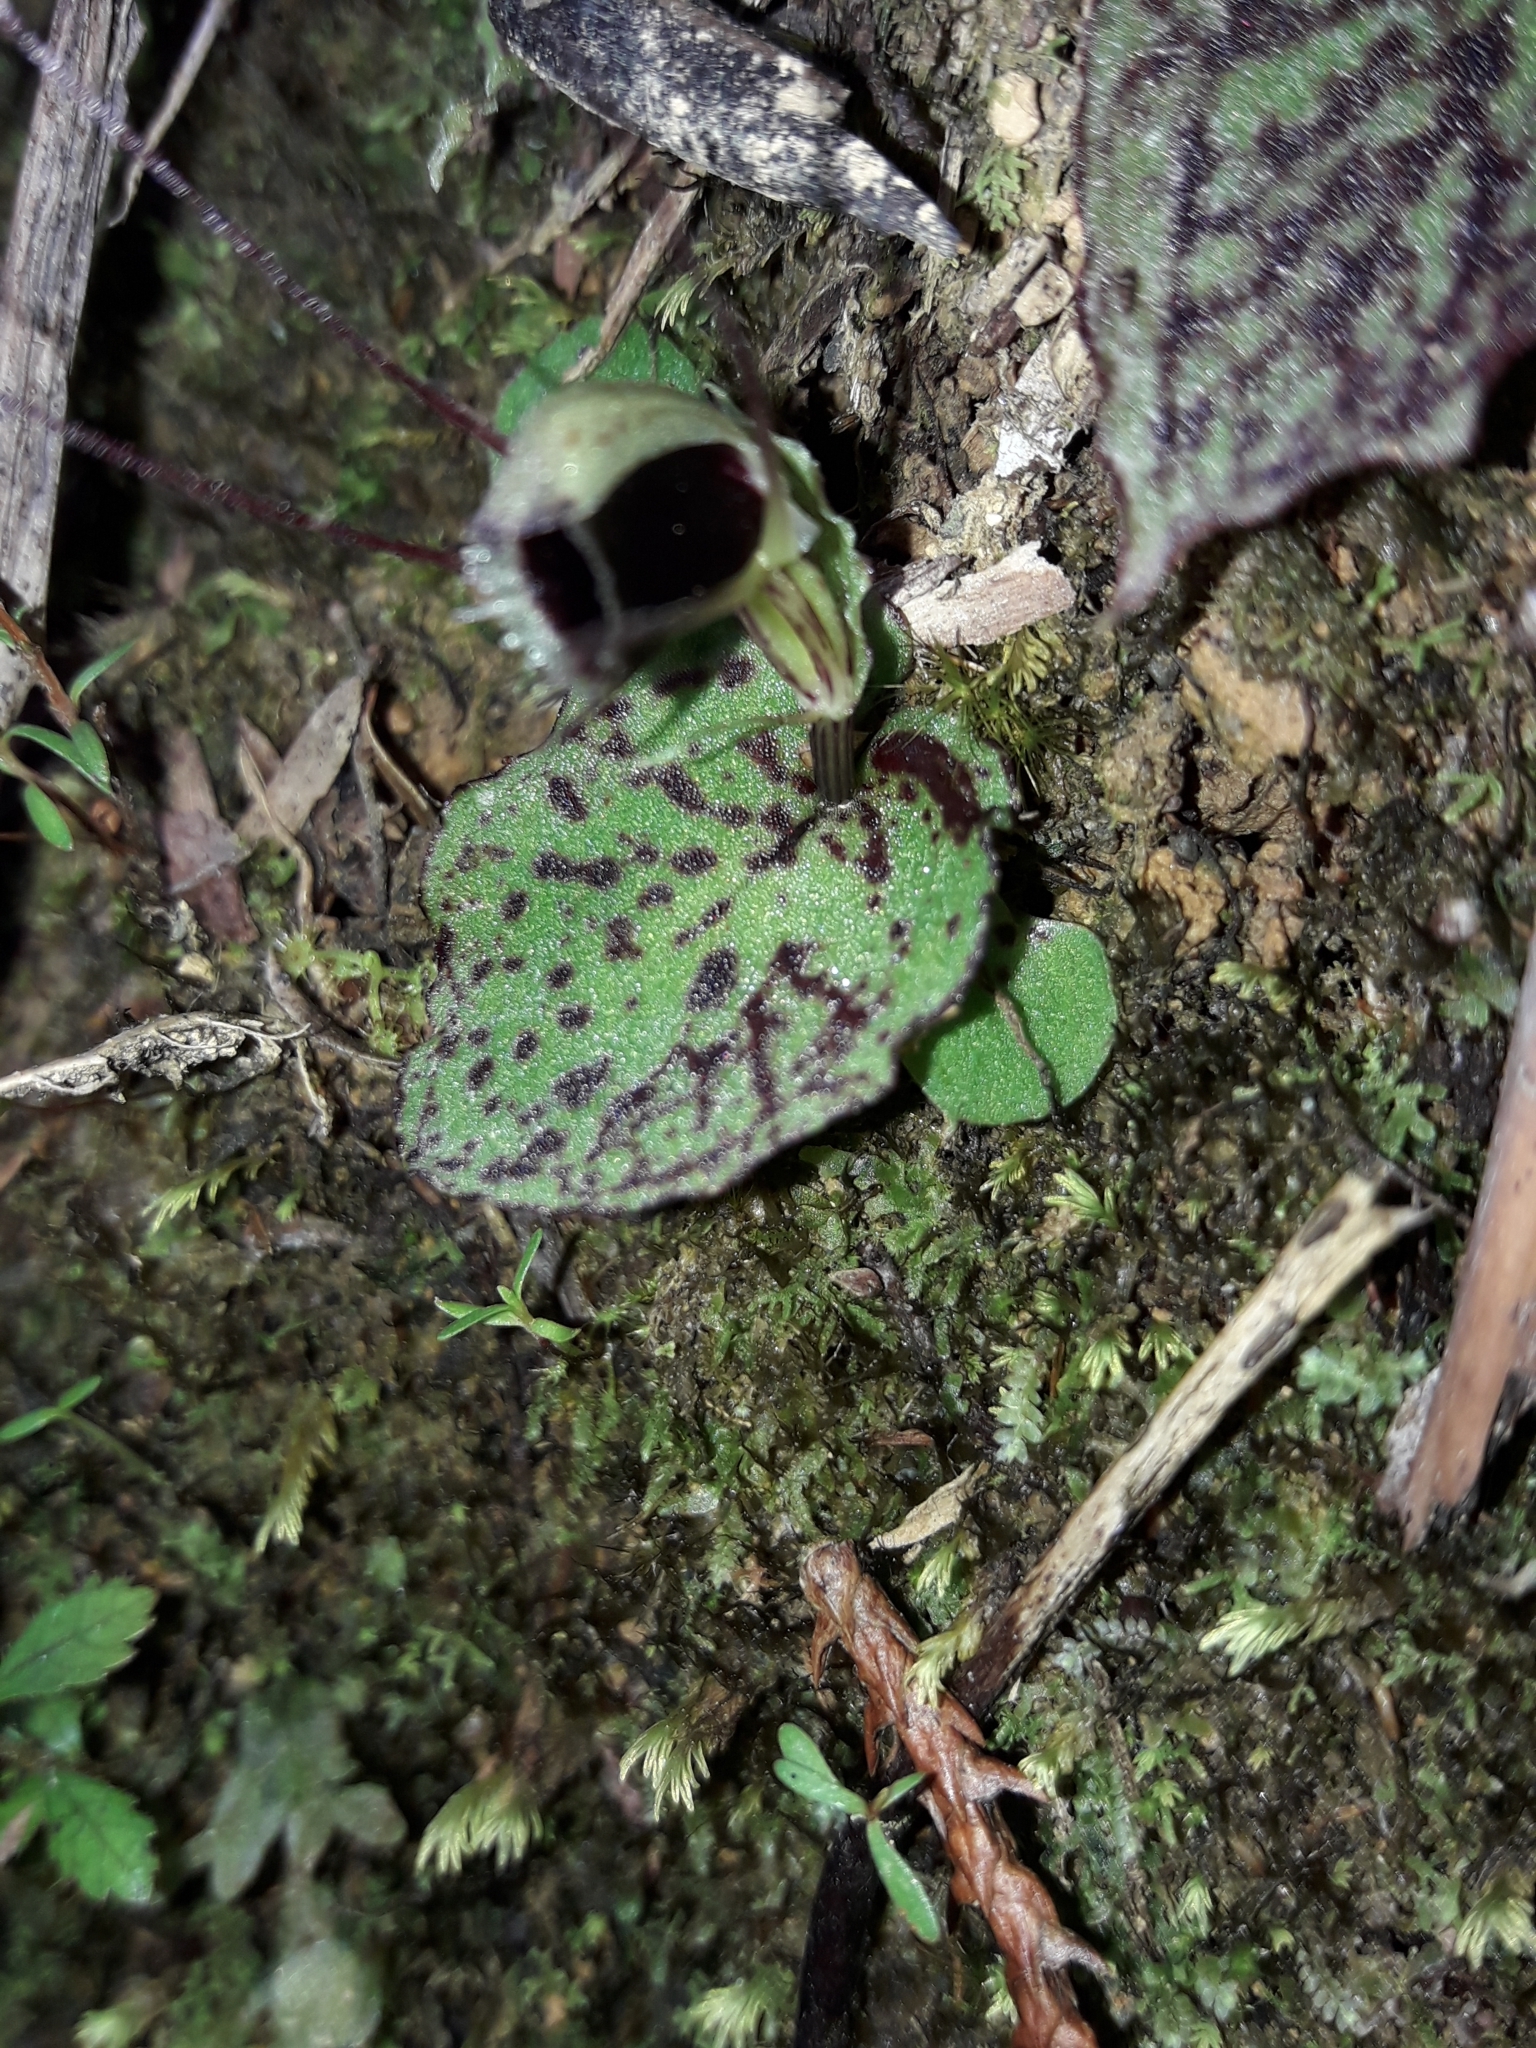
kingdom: Plantae
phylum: Tracheophyta
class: Liliopsida
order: Asparagales
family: Orchidaceae
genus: Corybas
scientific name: Corybas oblongus
